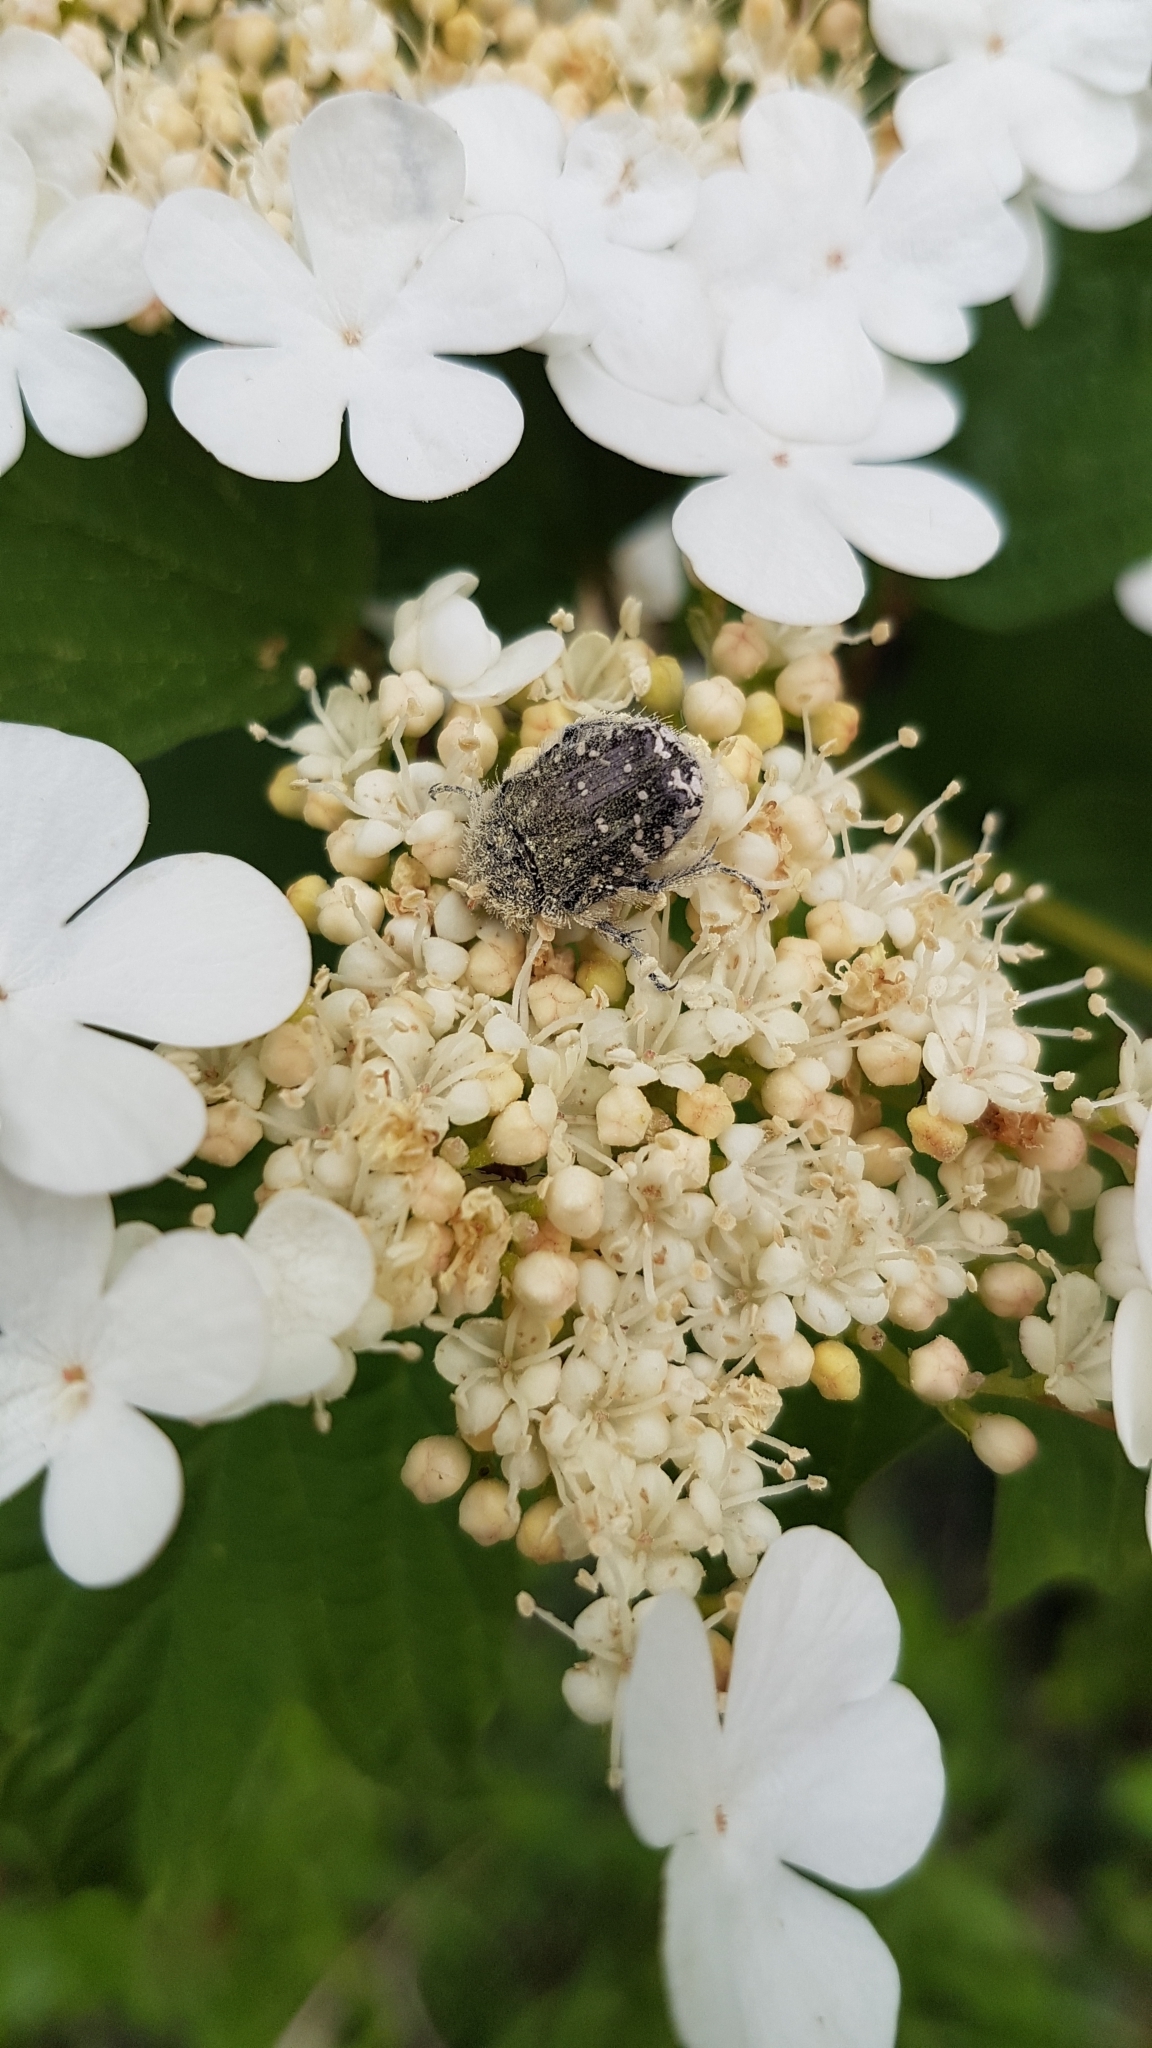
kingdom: Animalia
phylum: Arthropoda
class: Insecta
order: Coleoptera
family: Scarabaeidae
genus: Oxythyrea
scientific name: Oxythyrea funesta
